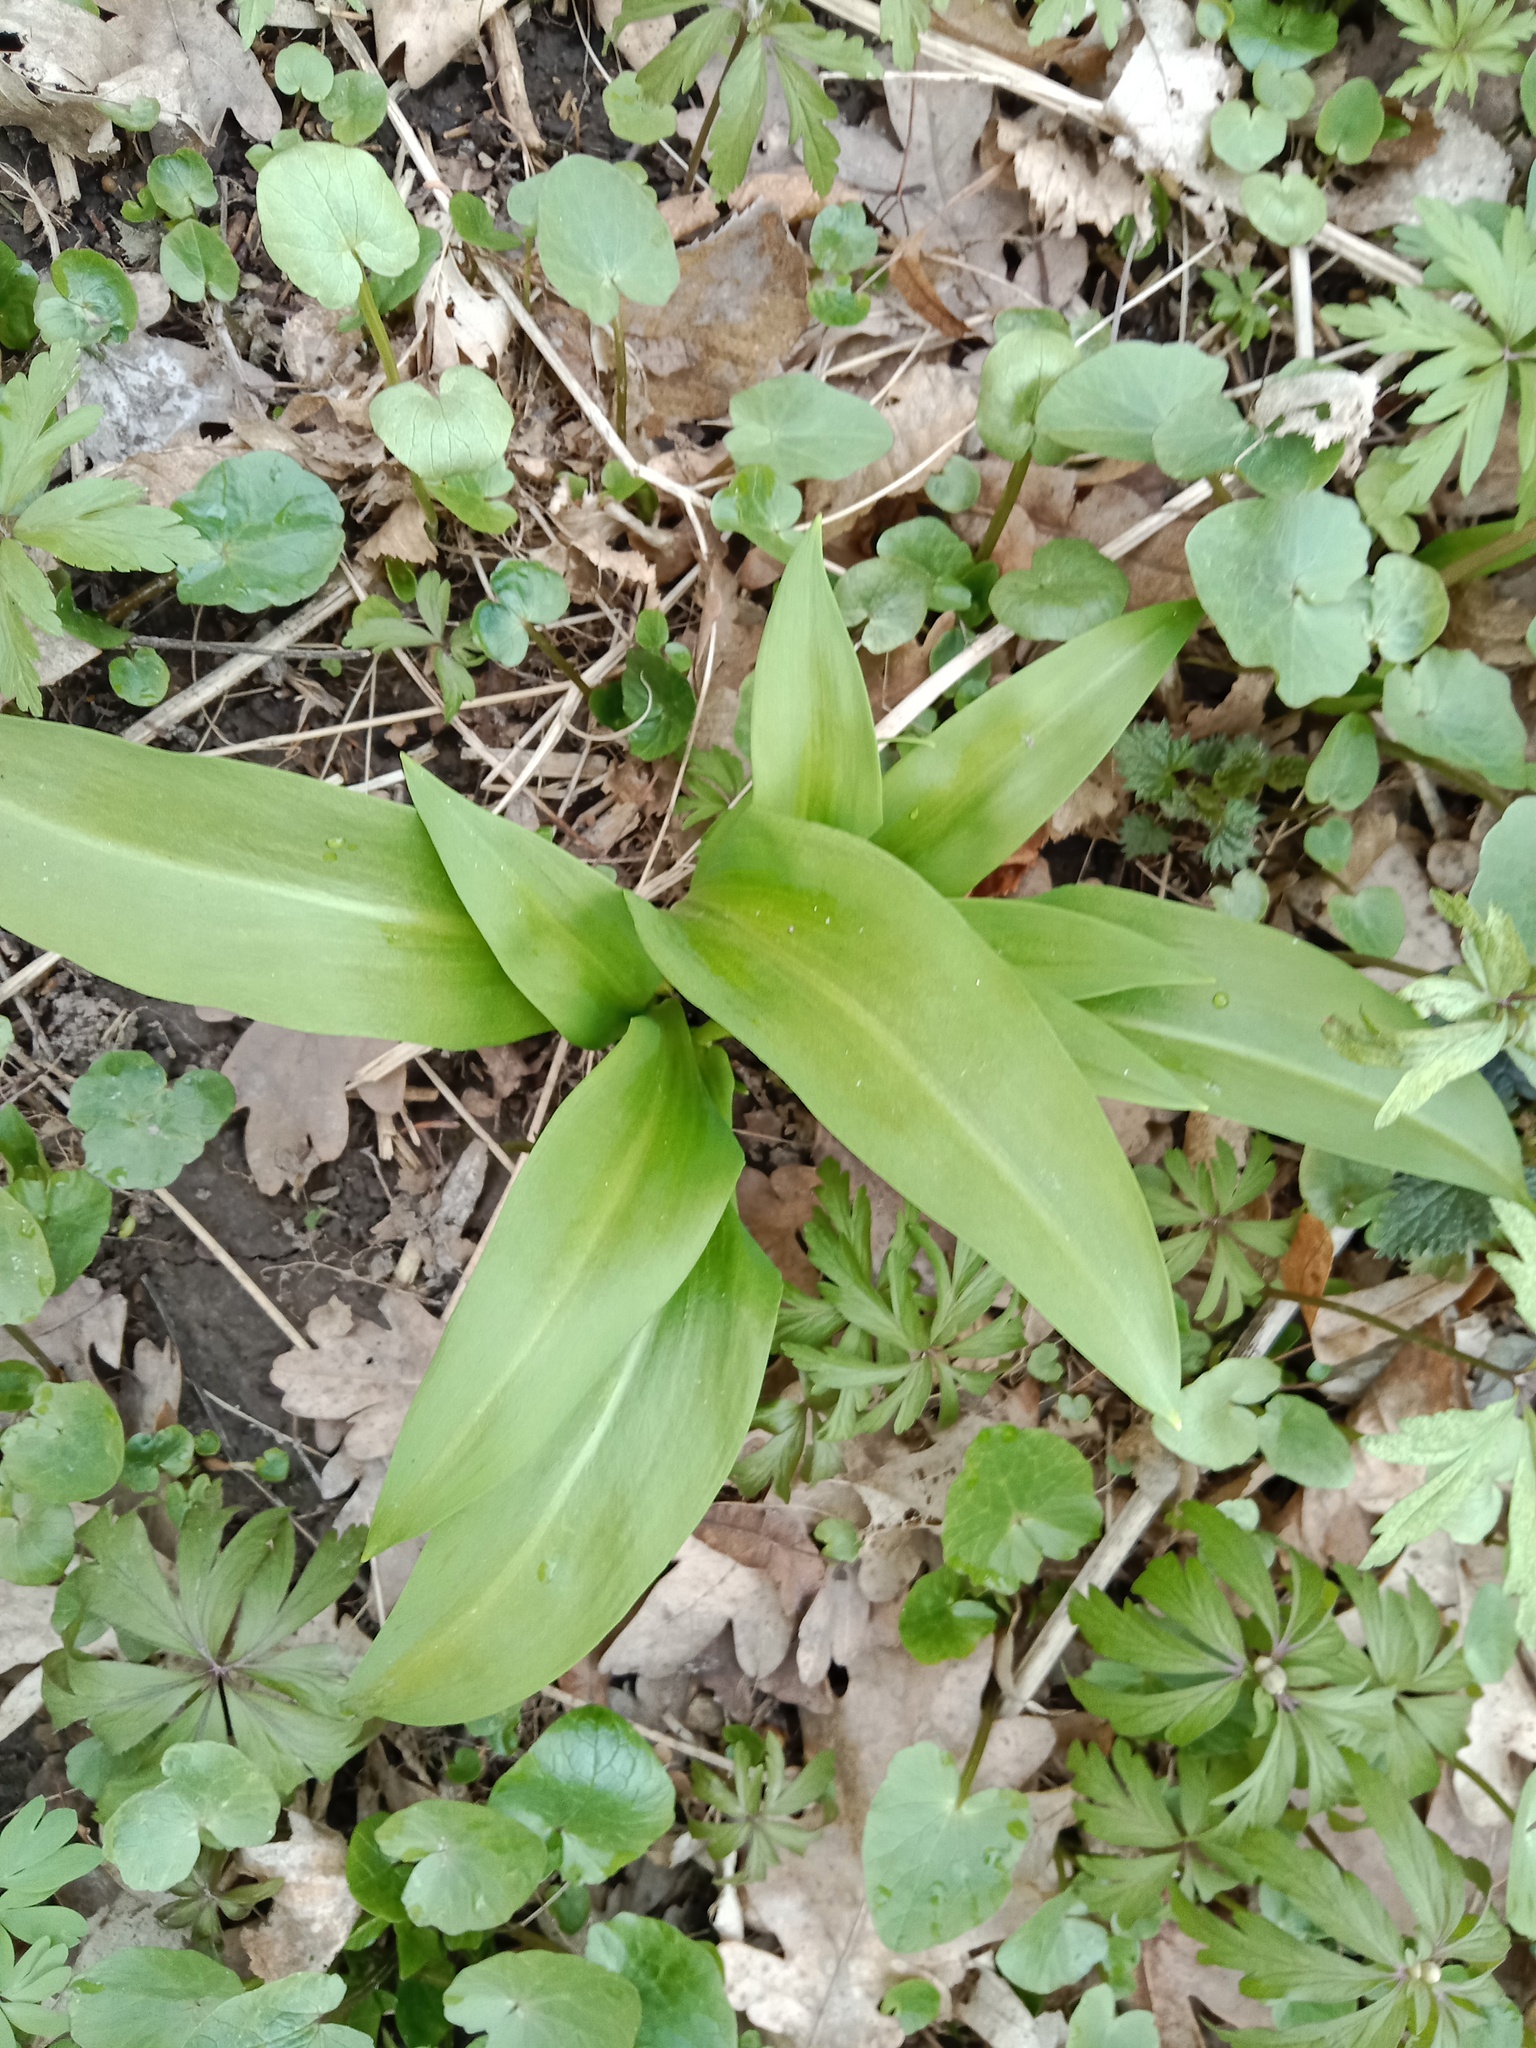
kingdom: Plantae
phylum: Tracheophyta
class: Liliopsida
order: Asparagales
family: Amaryllidaceae
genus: Allium
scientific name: Allium ursinum
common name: Ramsons
